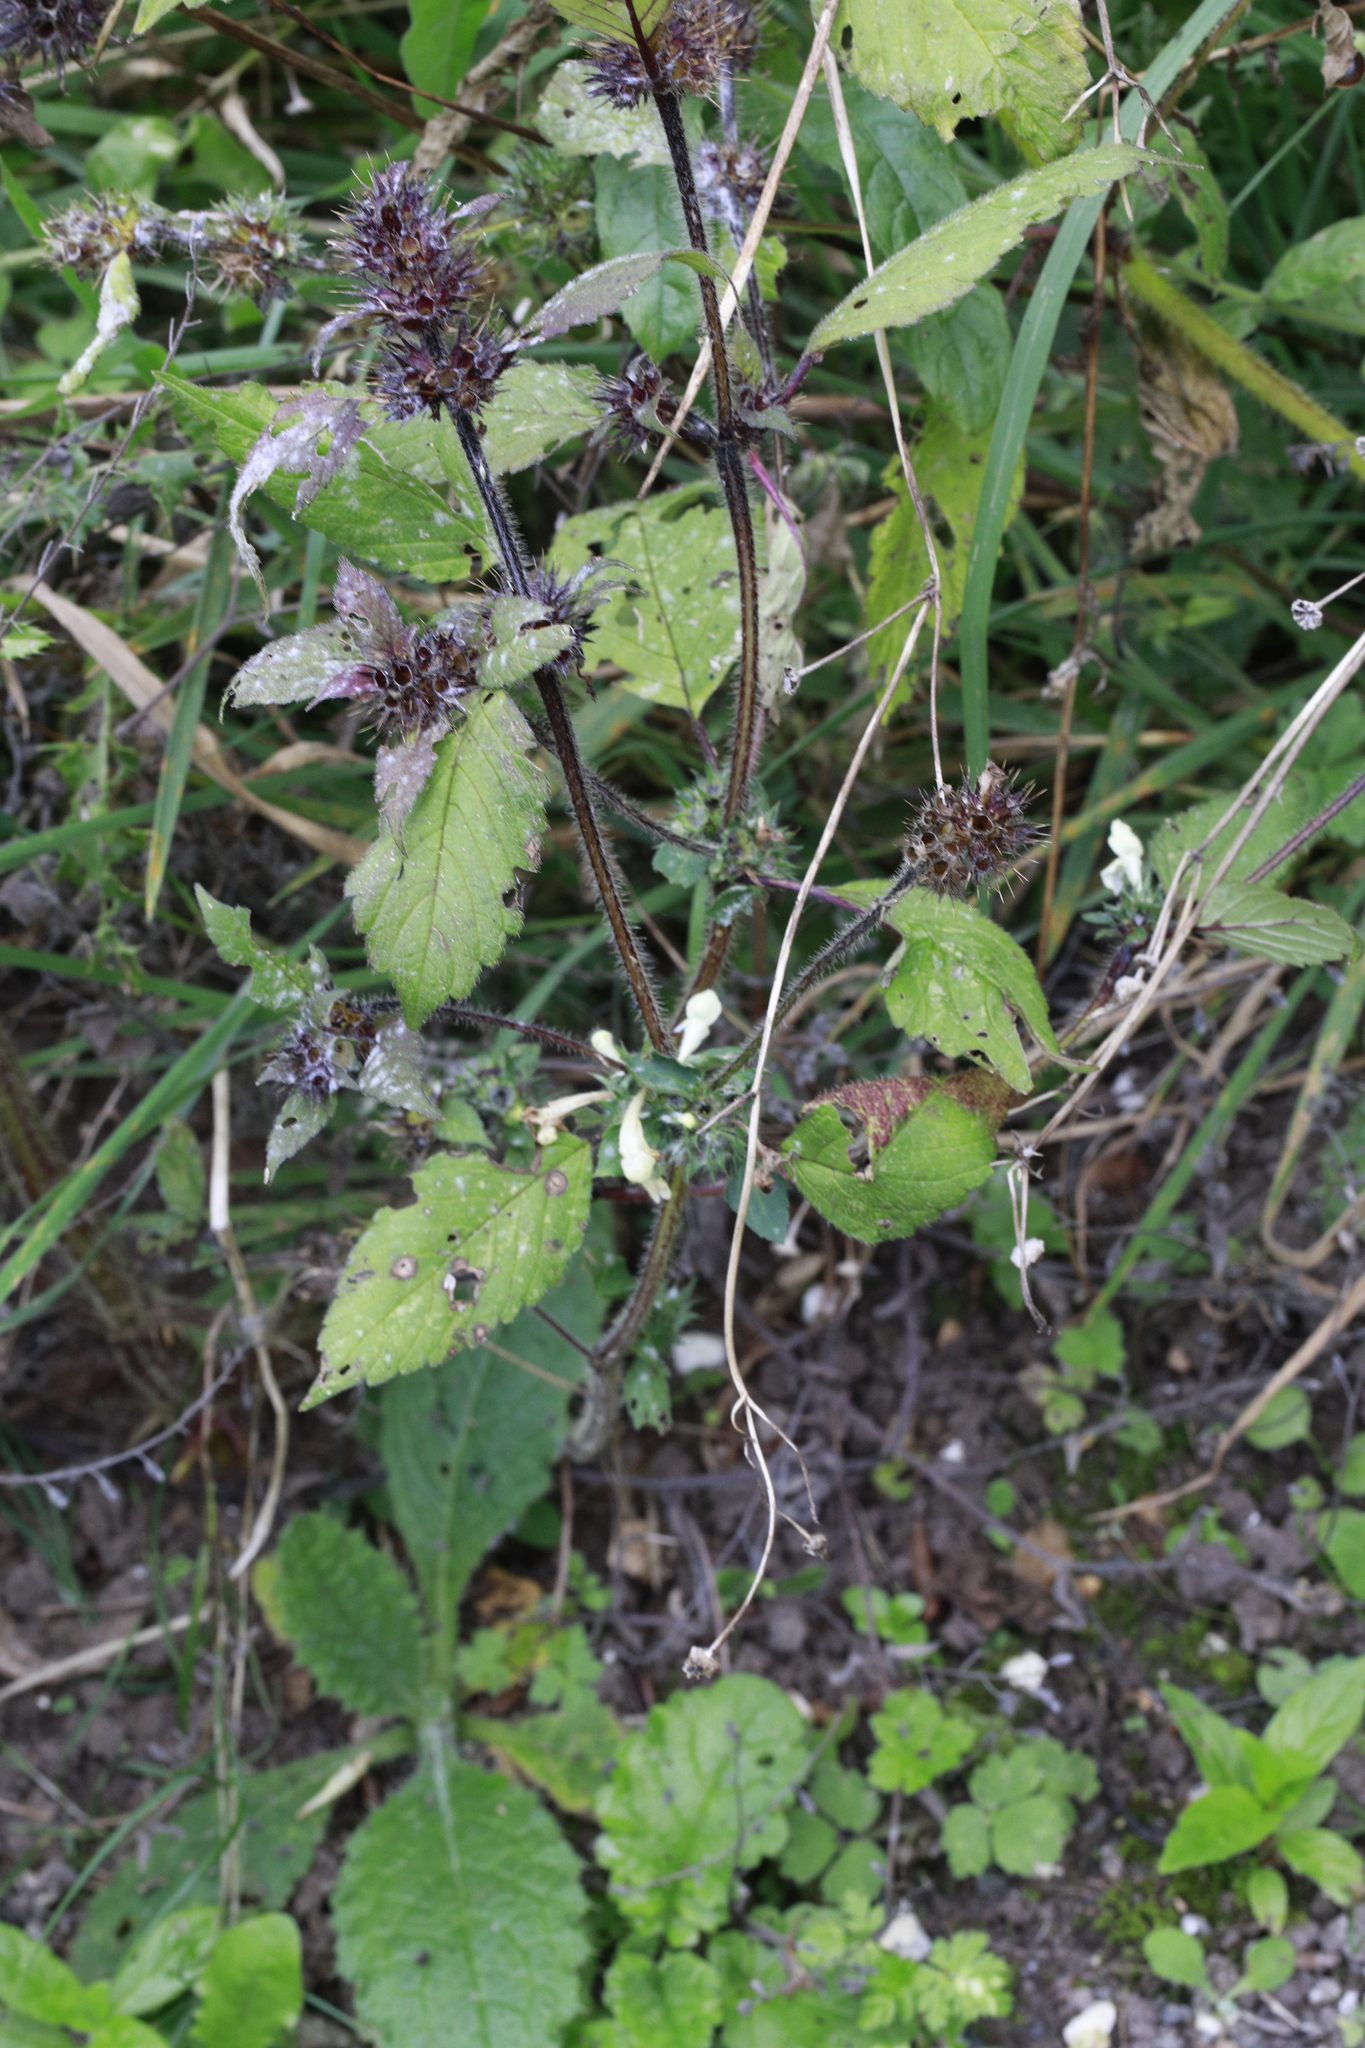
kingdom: Plantae
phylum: Tracheophyta
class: Magnoliopsida
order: Lamiales
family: Lamiaceae
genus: Galeopsis
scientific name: Galeopsis tetrahit
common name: Common hemp-nettle
